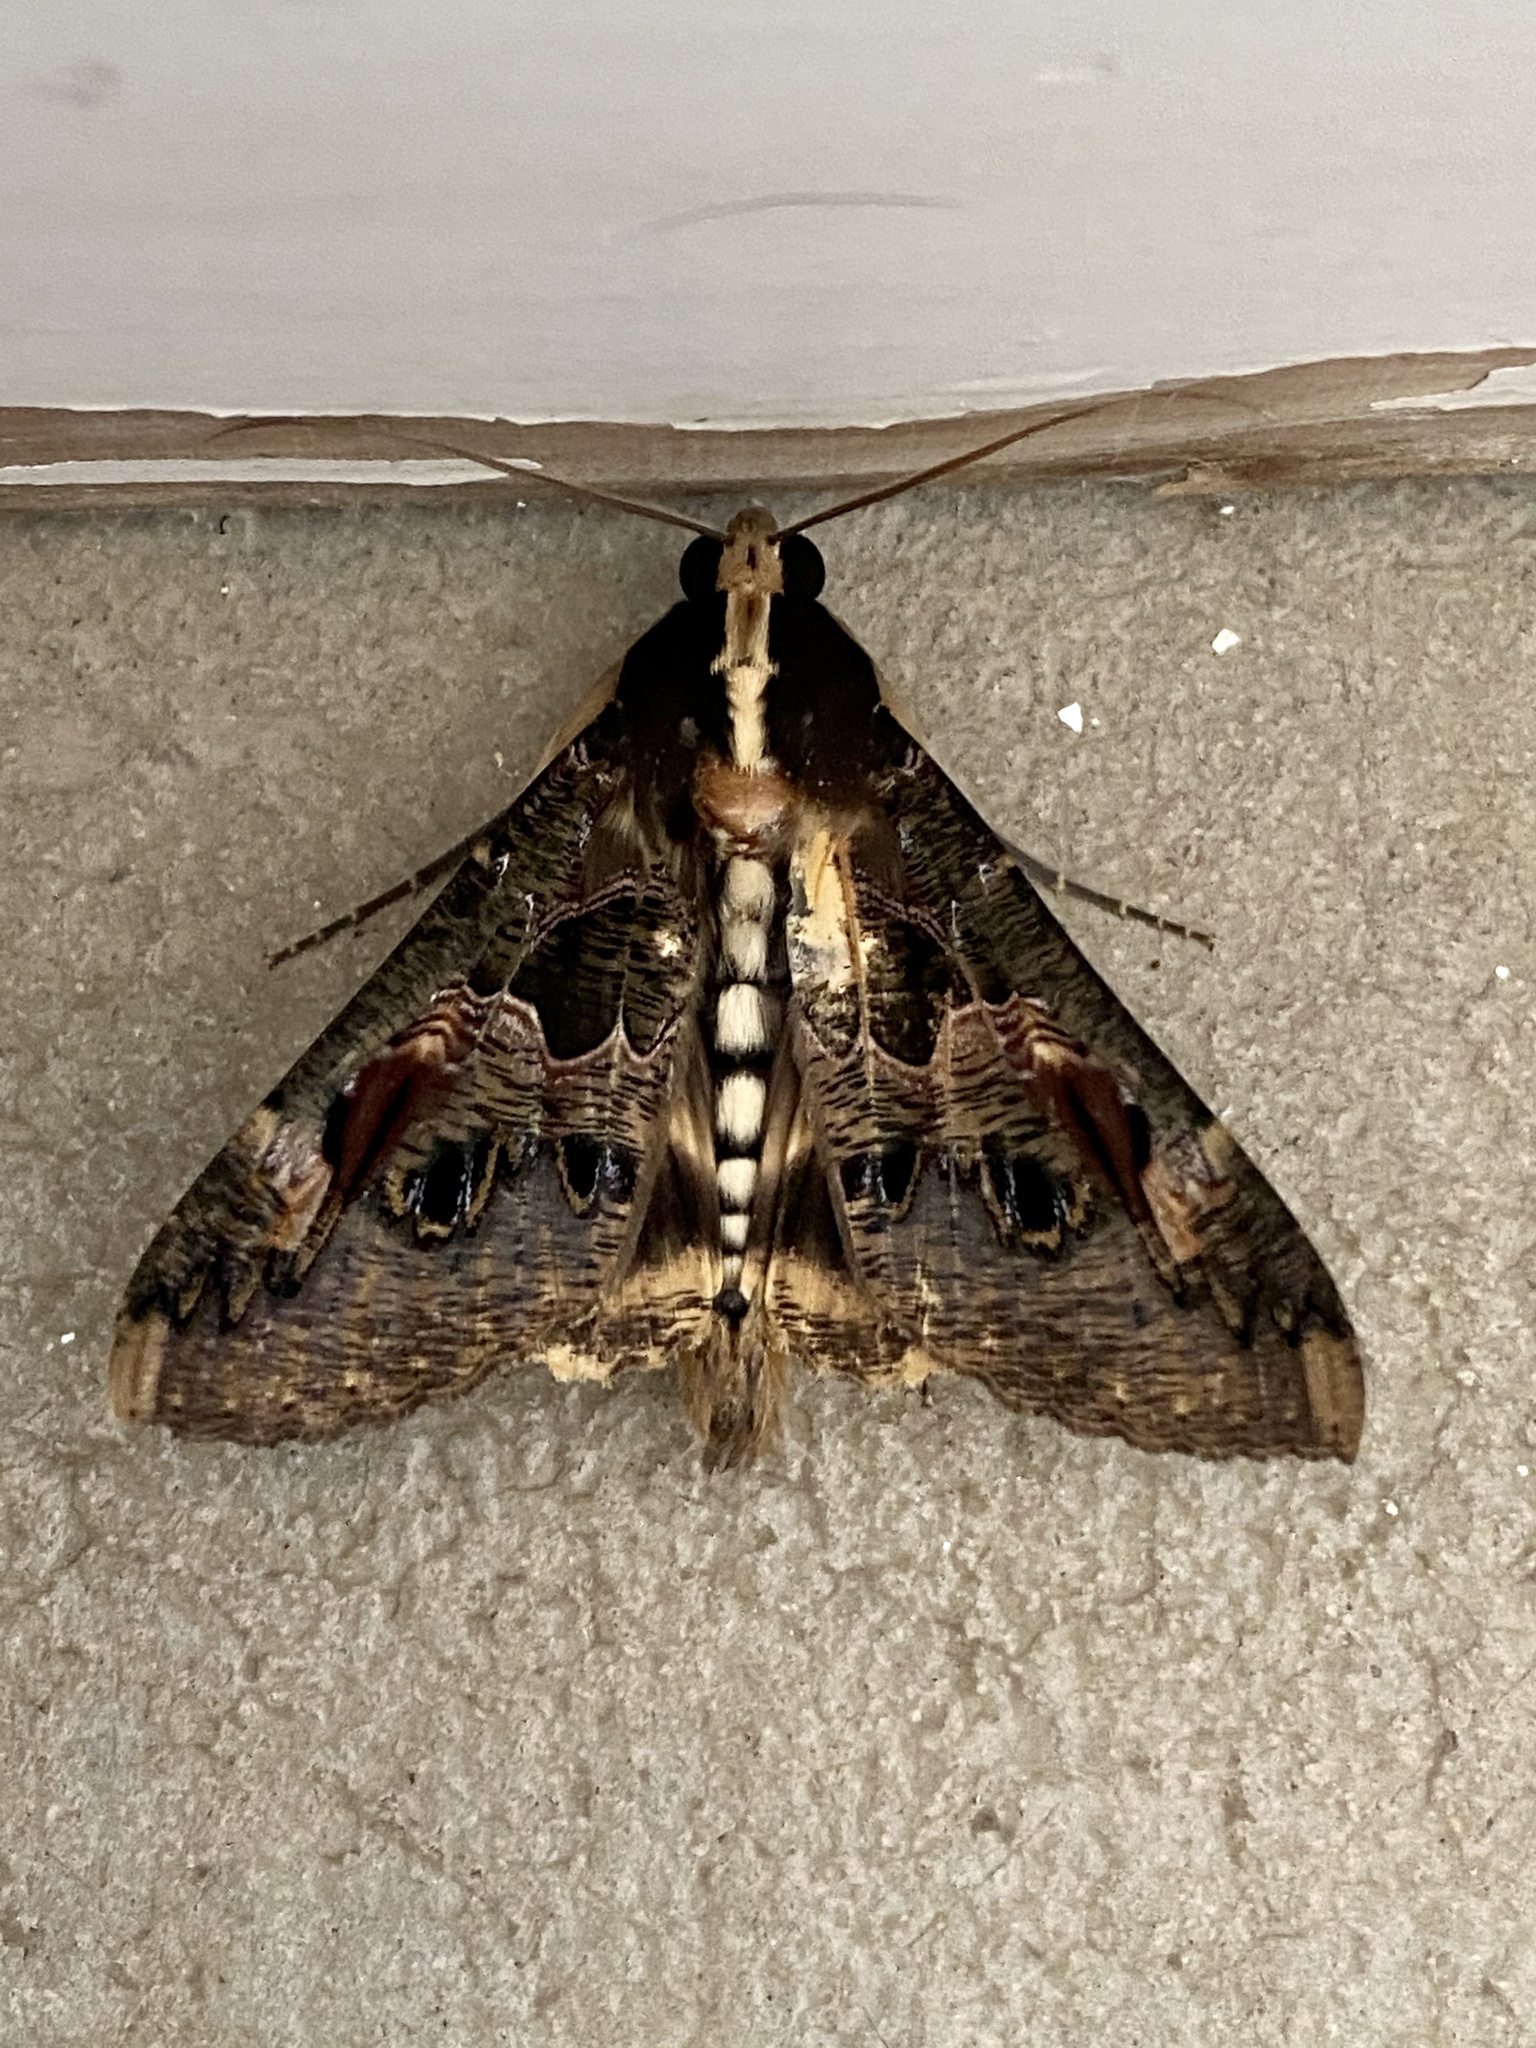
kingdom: Animalia
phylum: Arthropoda
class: Insecta
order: Lepidoptera
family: Erebidae
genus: Sphingomorpha
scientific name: Sphingomorpha chlorea
